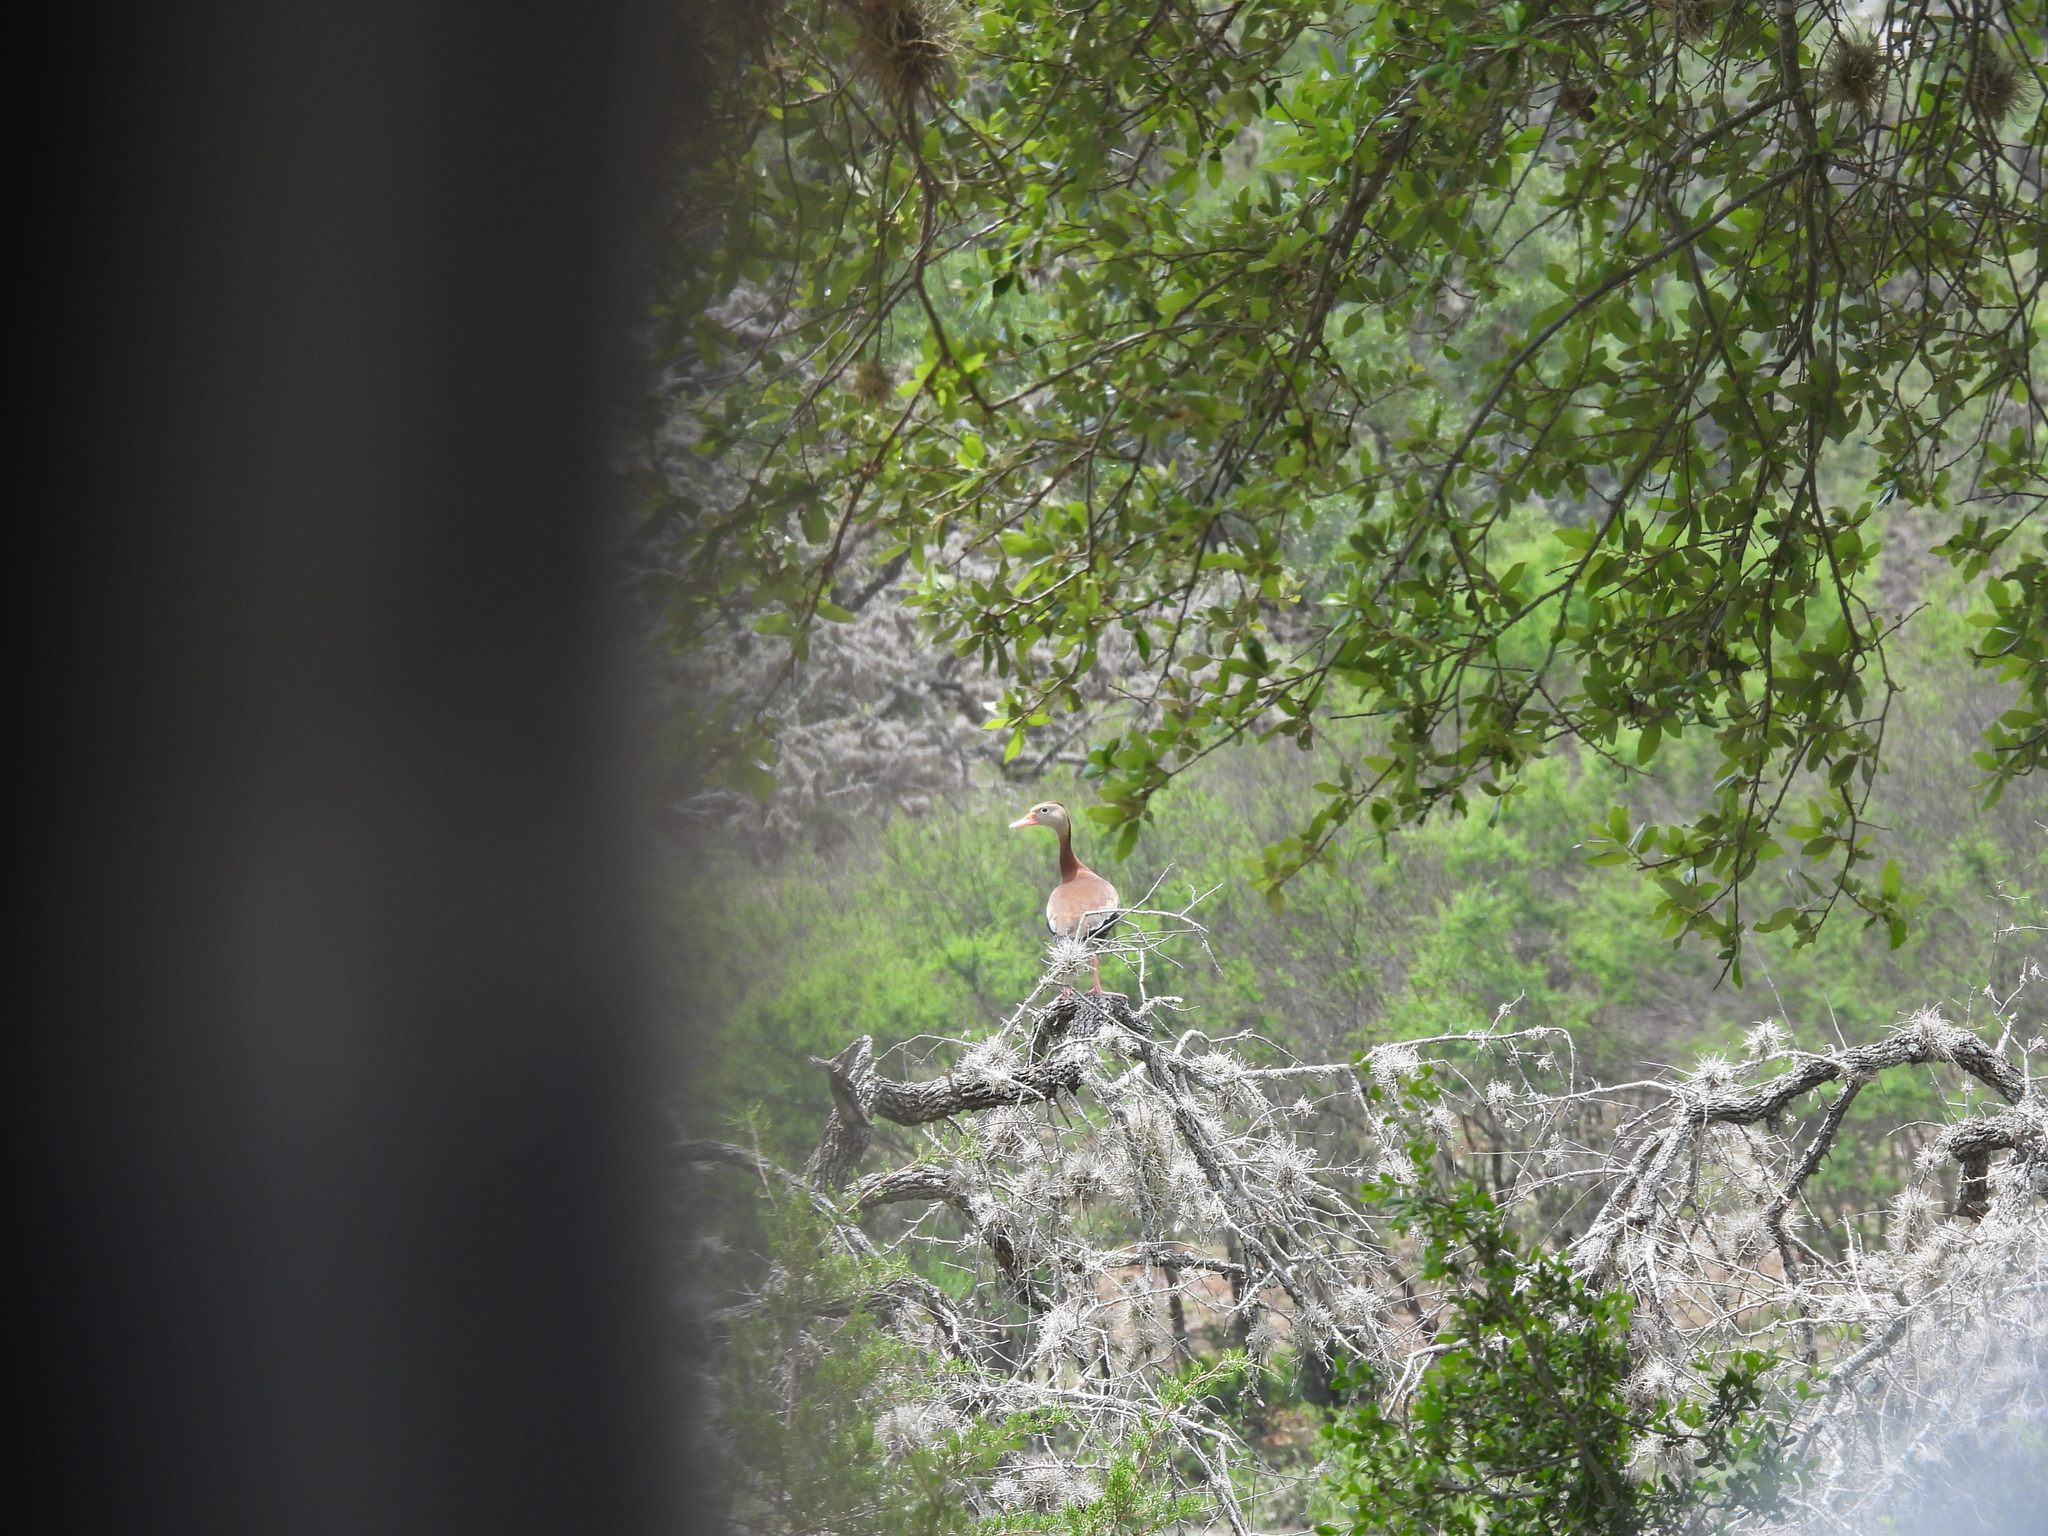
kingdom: Animalia
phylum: Chordata
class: Aves
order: Anseriformes
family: Anatidae
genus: Dendrocygna
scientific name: Dendrocygna autumnalis
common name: Black-bellied whistling duck
